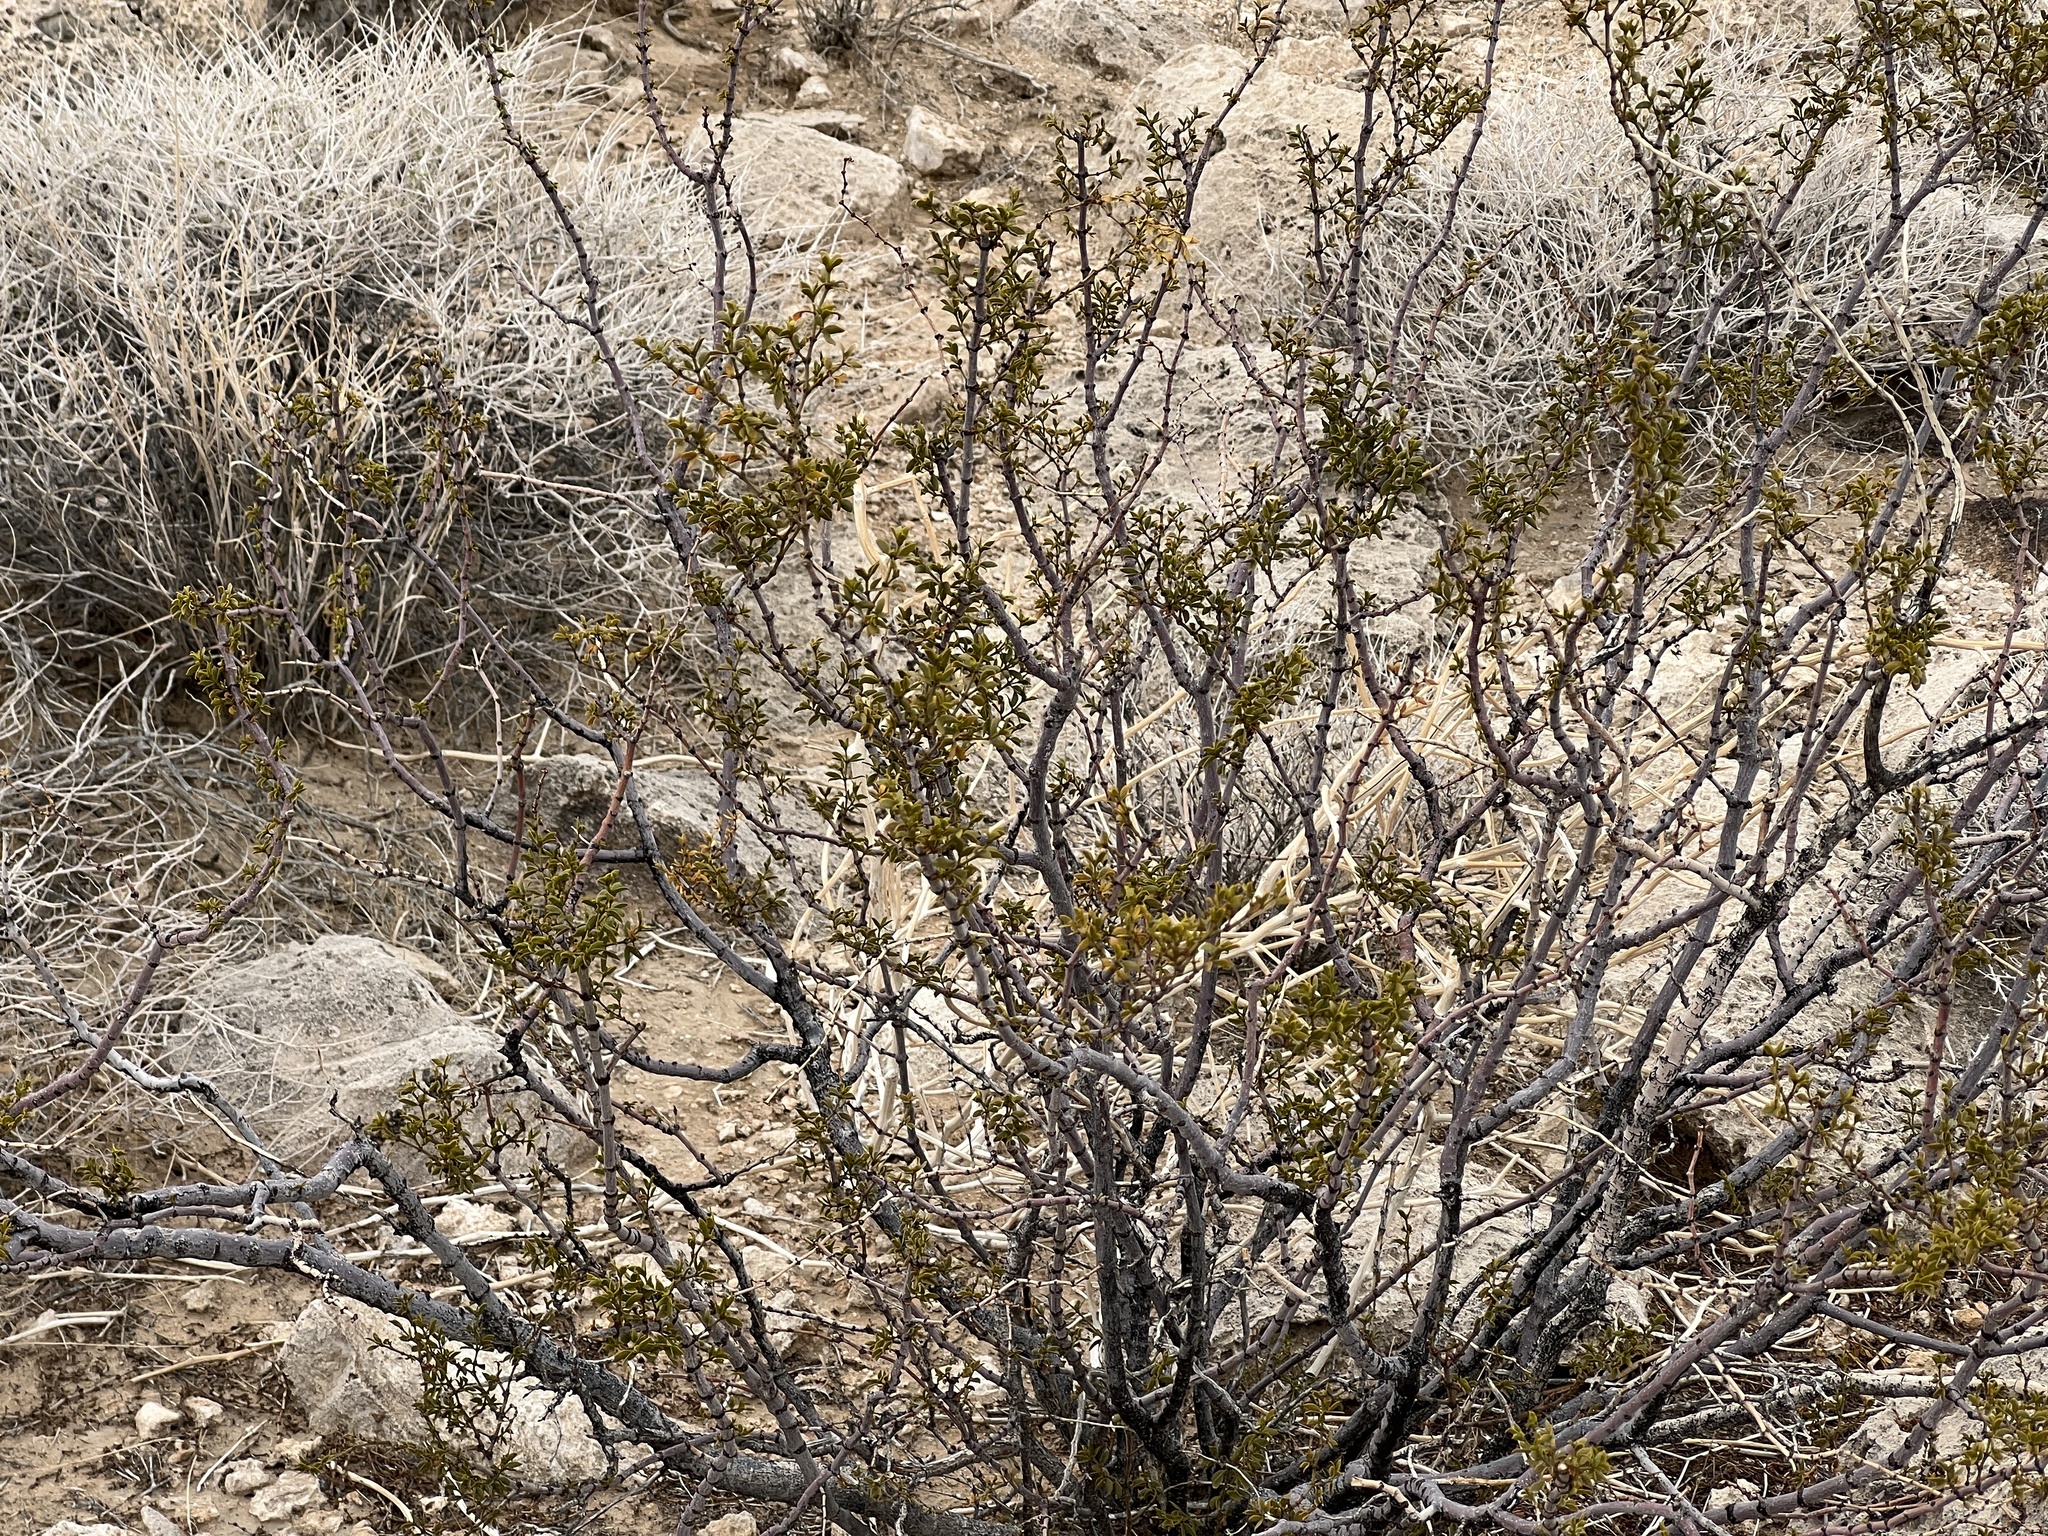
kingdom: Plantae
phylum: Tracheophyta
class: Magnoliopsida
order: Zygophyllales
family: Zygophyllaceae
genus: Larrea
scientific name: Larrea tridentata
